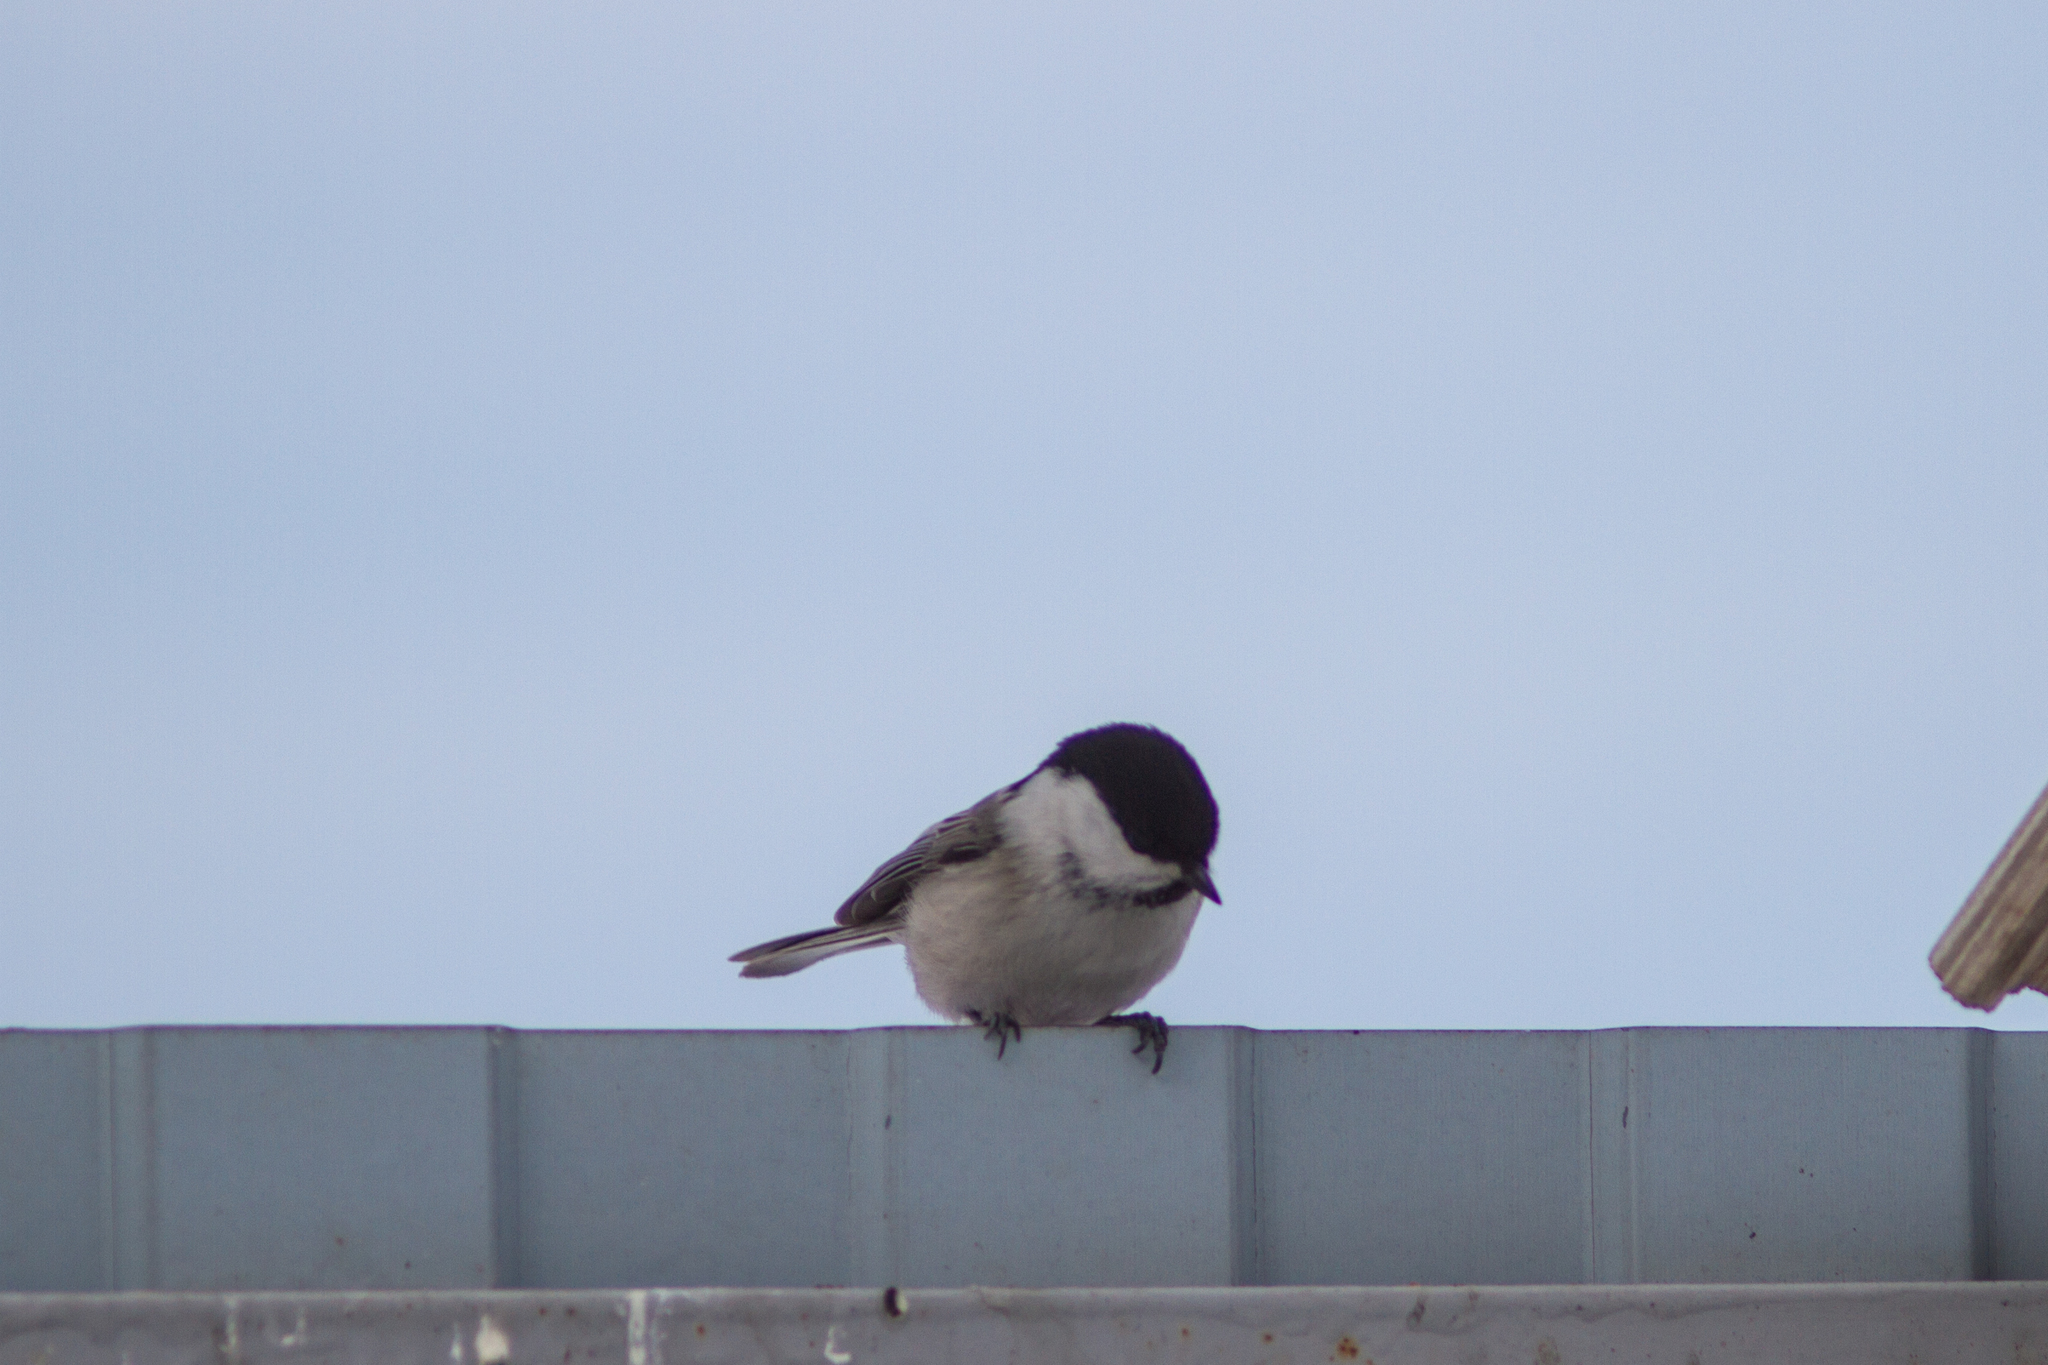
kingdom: Animalia
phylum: Chordata
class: Aves
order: Passeriformes
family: Paridae
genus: Poecile
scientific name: Poecile montanus
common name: Willow tit
